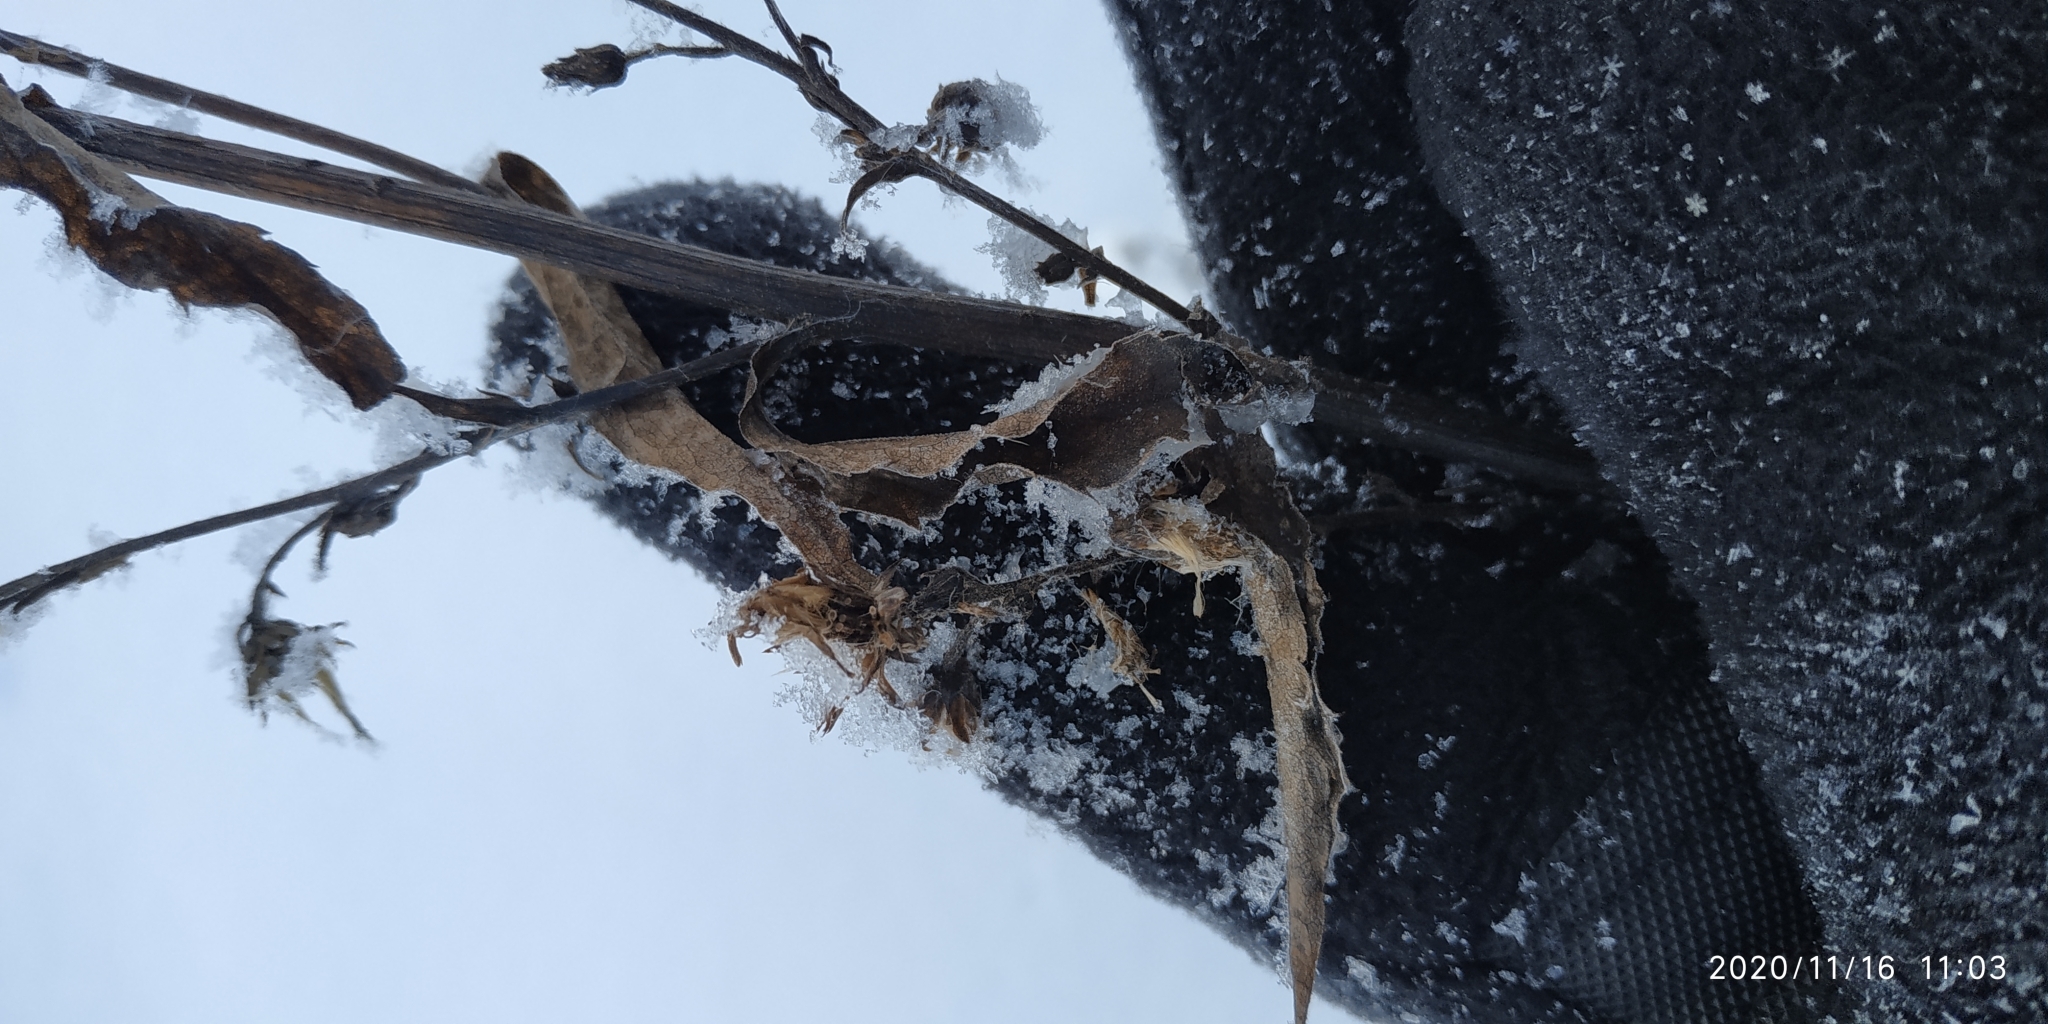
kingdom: Plantae
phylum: Tracheophyta
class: Magnoliopsida
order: Asterales
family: Asteraceae
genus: Solidago
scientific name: Solidago virgaurea
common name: Goldenrod
